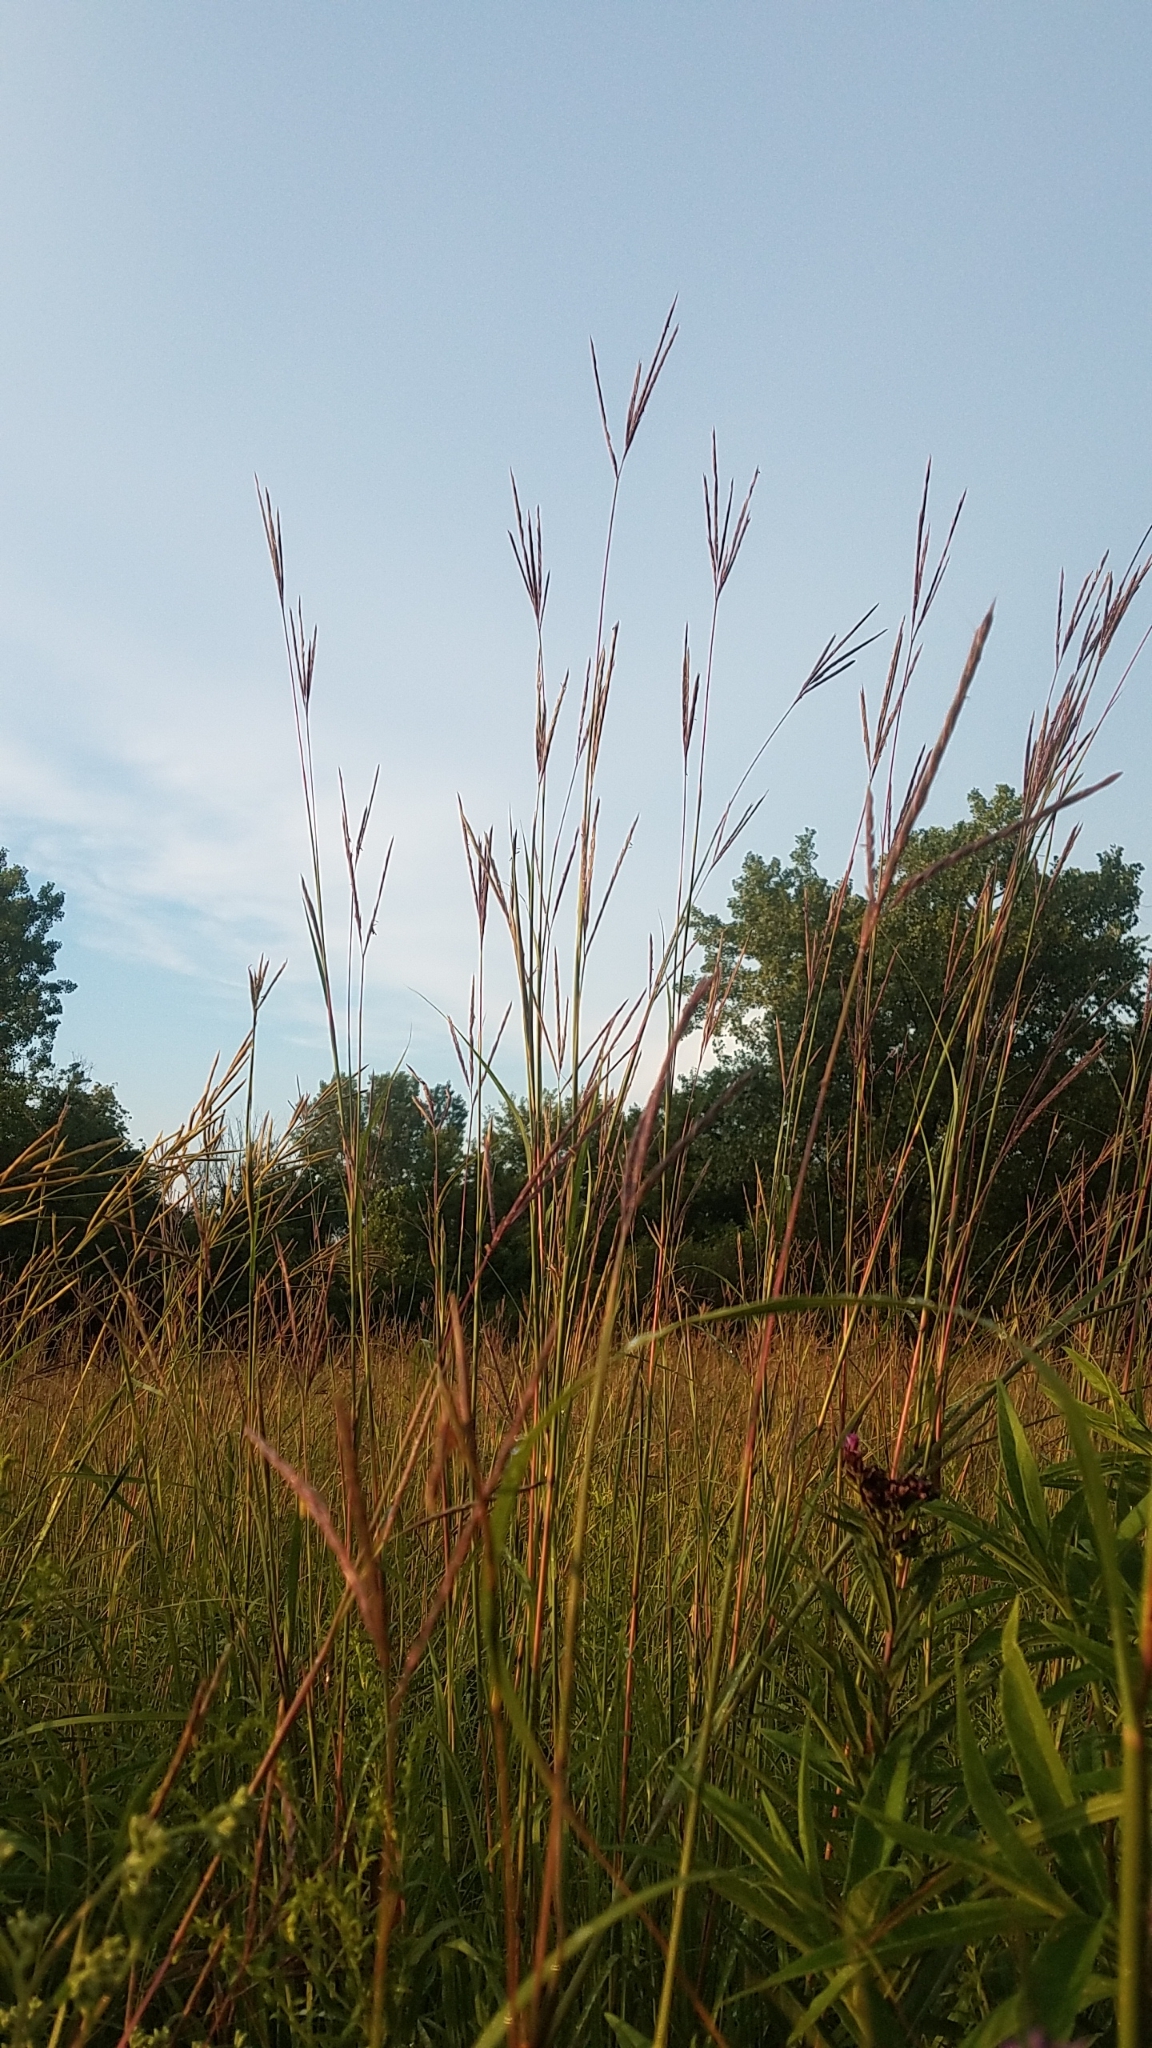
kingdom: Plantae
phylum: Tracheophyta
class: Liliopsida
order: Poales
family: Poaceae
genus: Andropogon
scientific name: Andropogon gerardi
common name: Big bluestem
